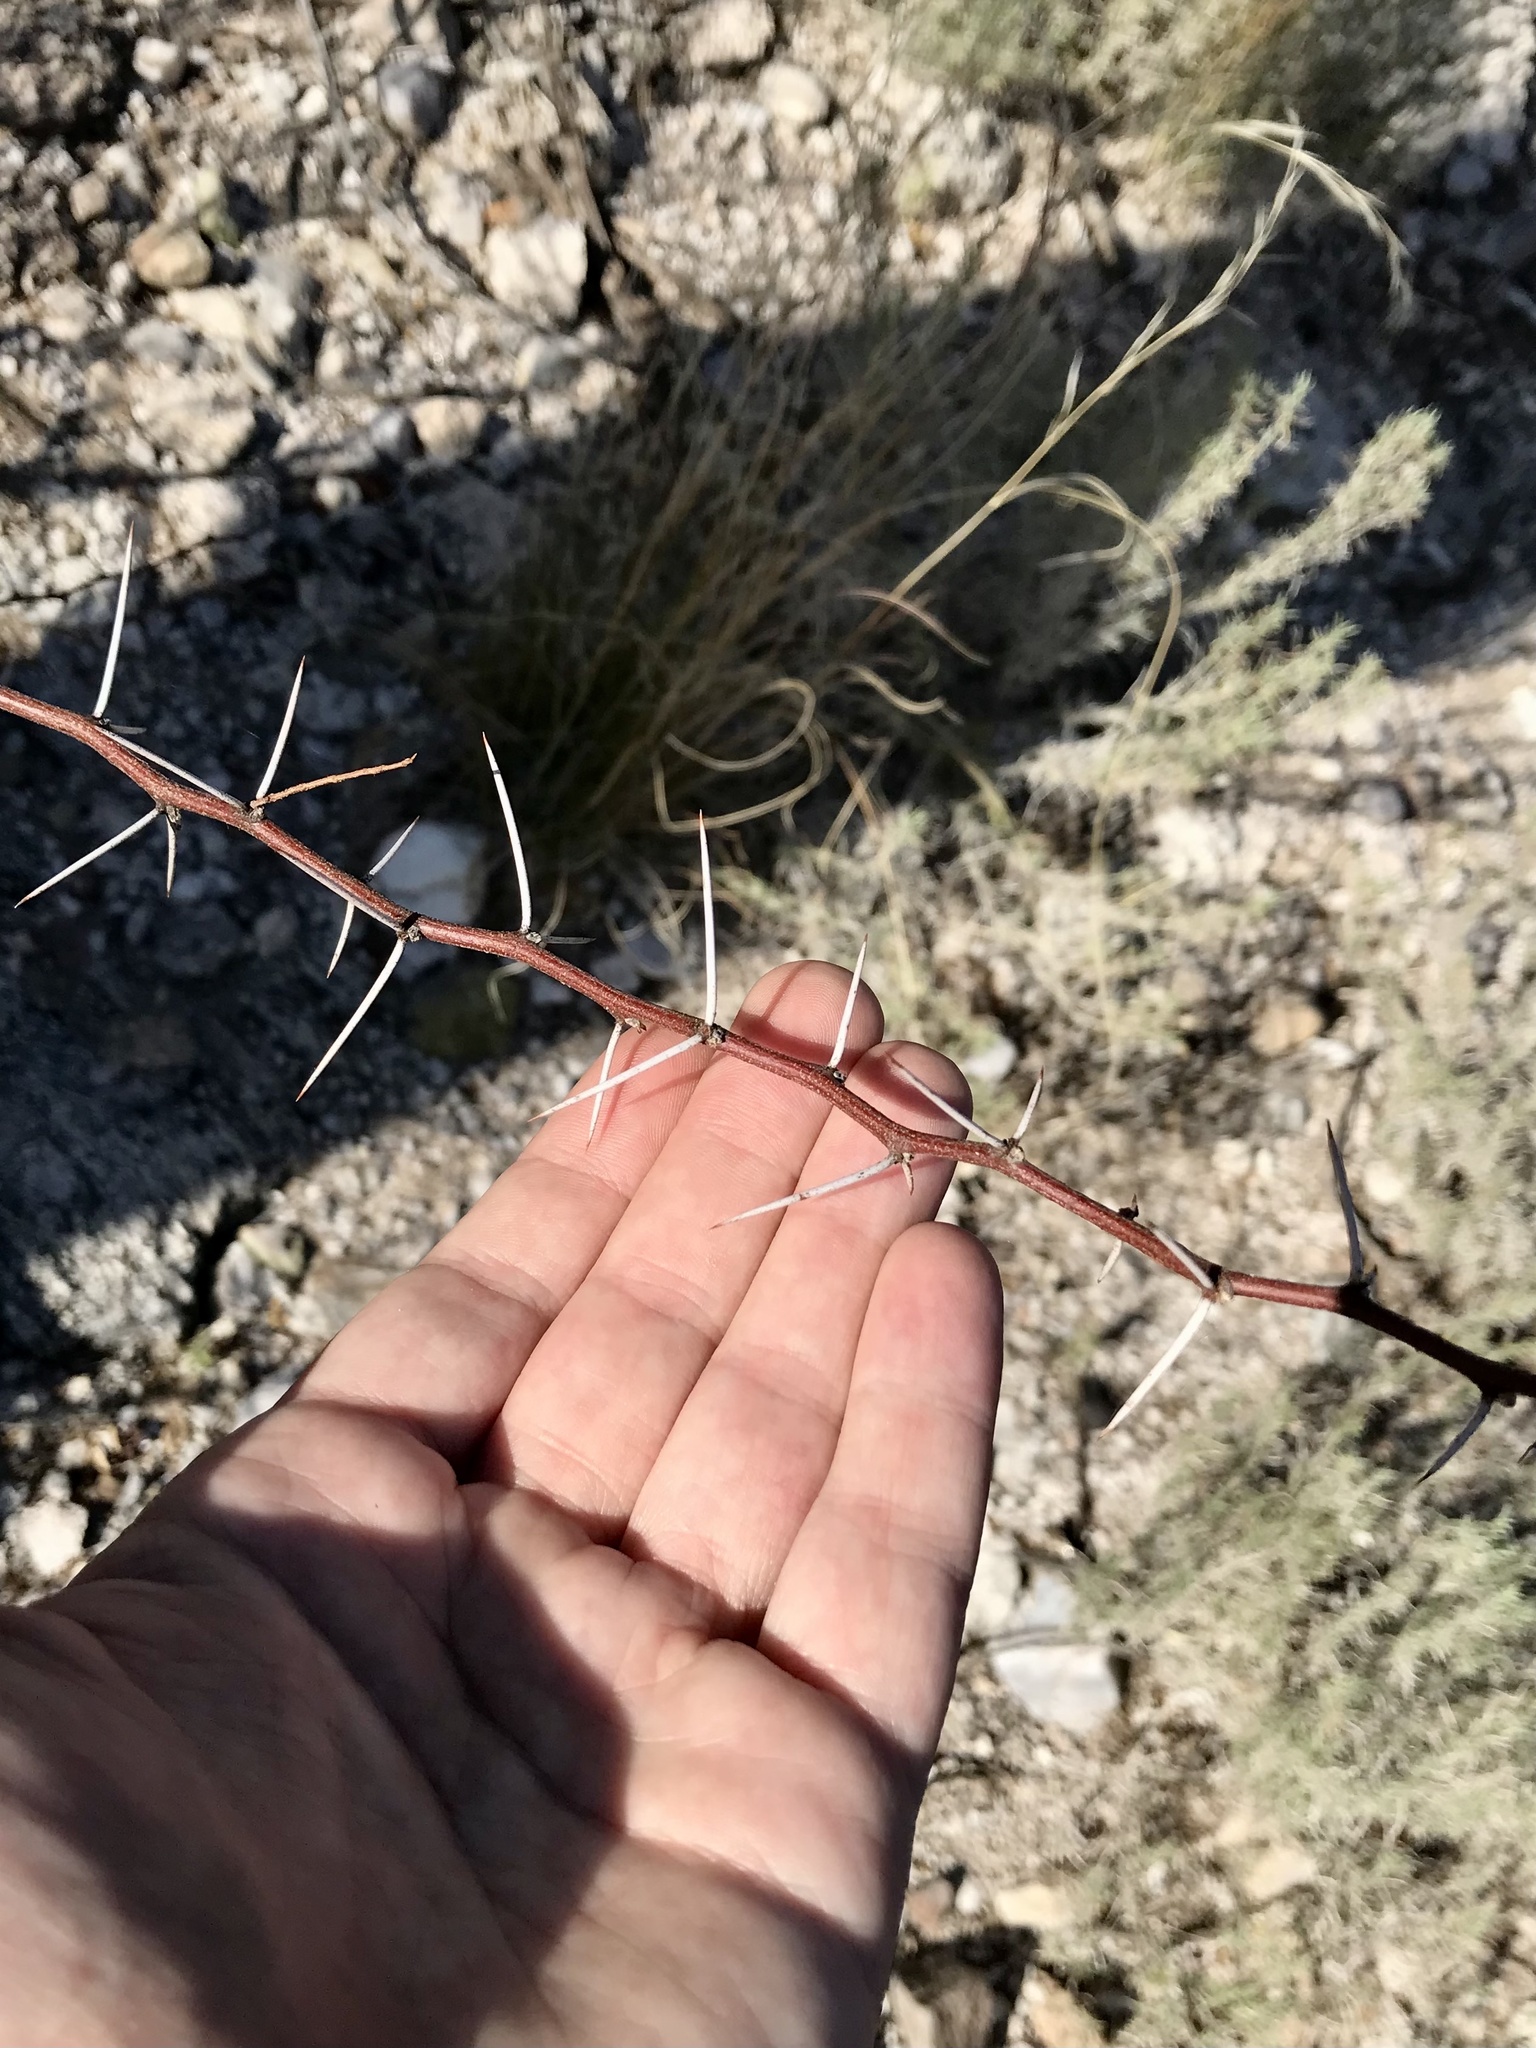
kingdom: Plantae
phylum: Tracheophyta
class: Magnoliopsida
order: Fabales
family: Fabaceae
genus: Vachellia
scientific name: Vachellia constricta
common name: Mescat acacia
